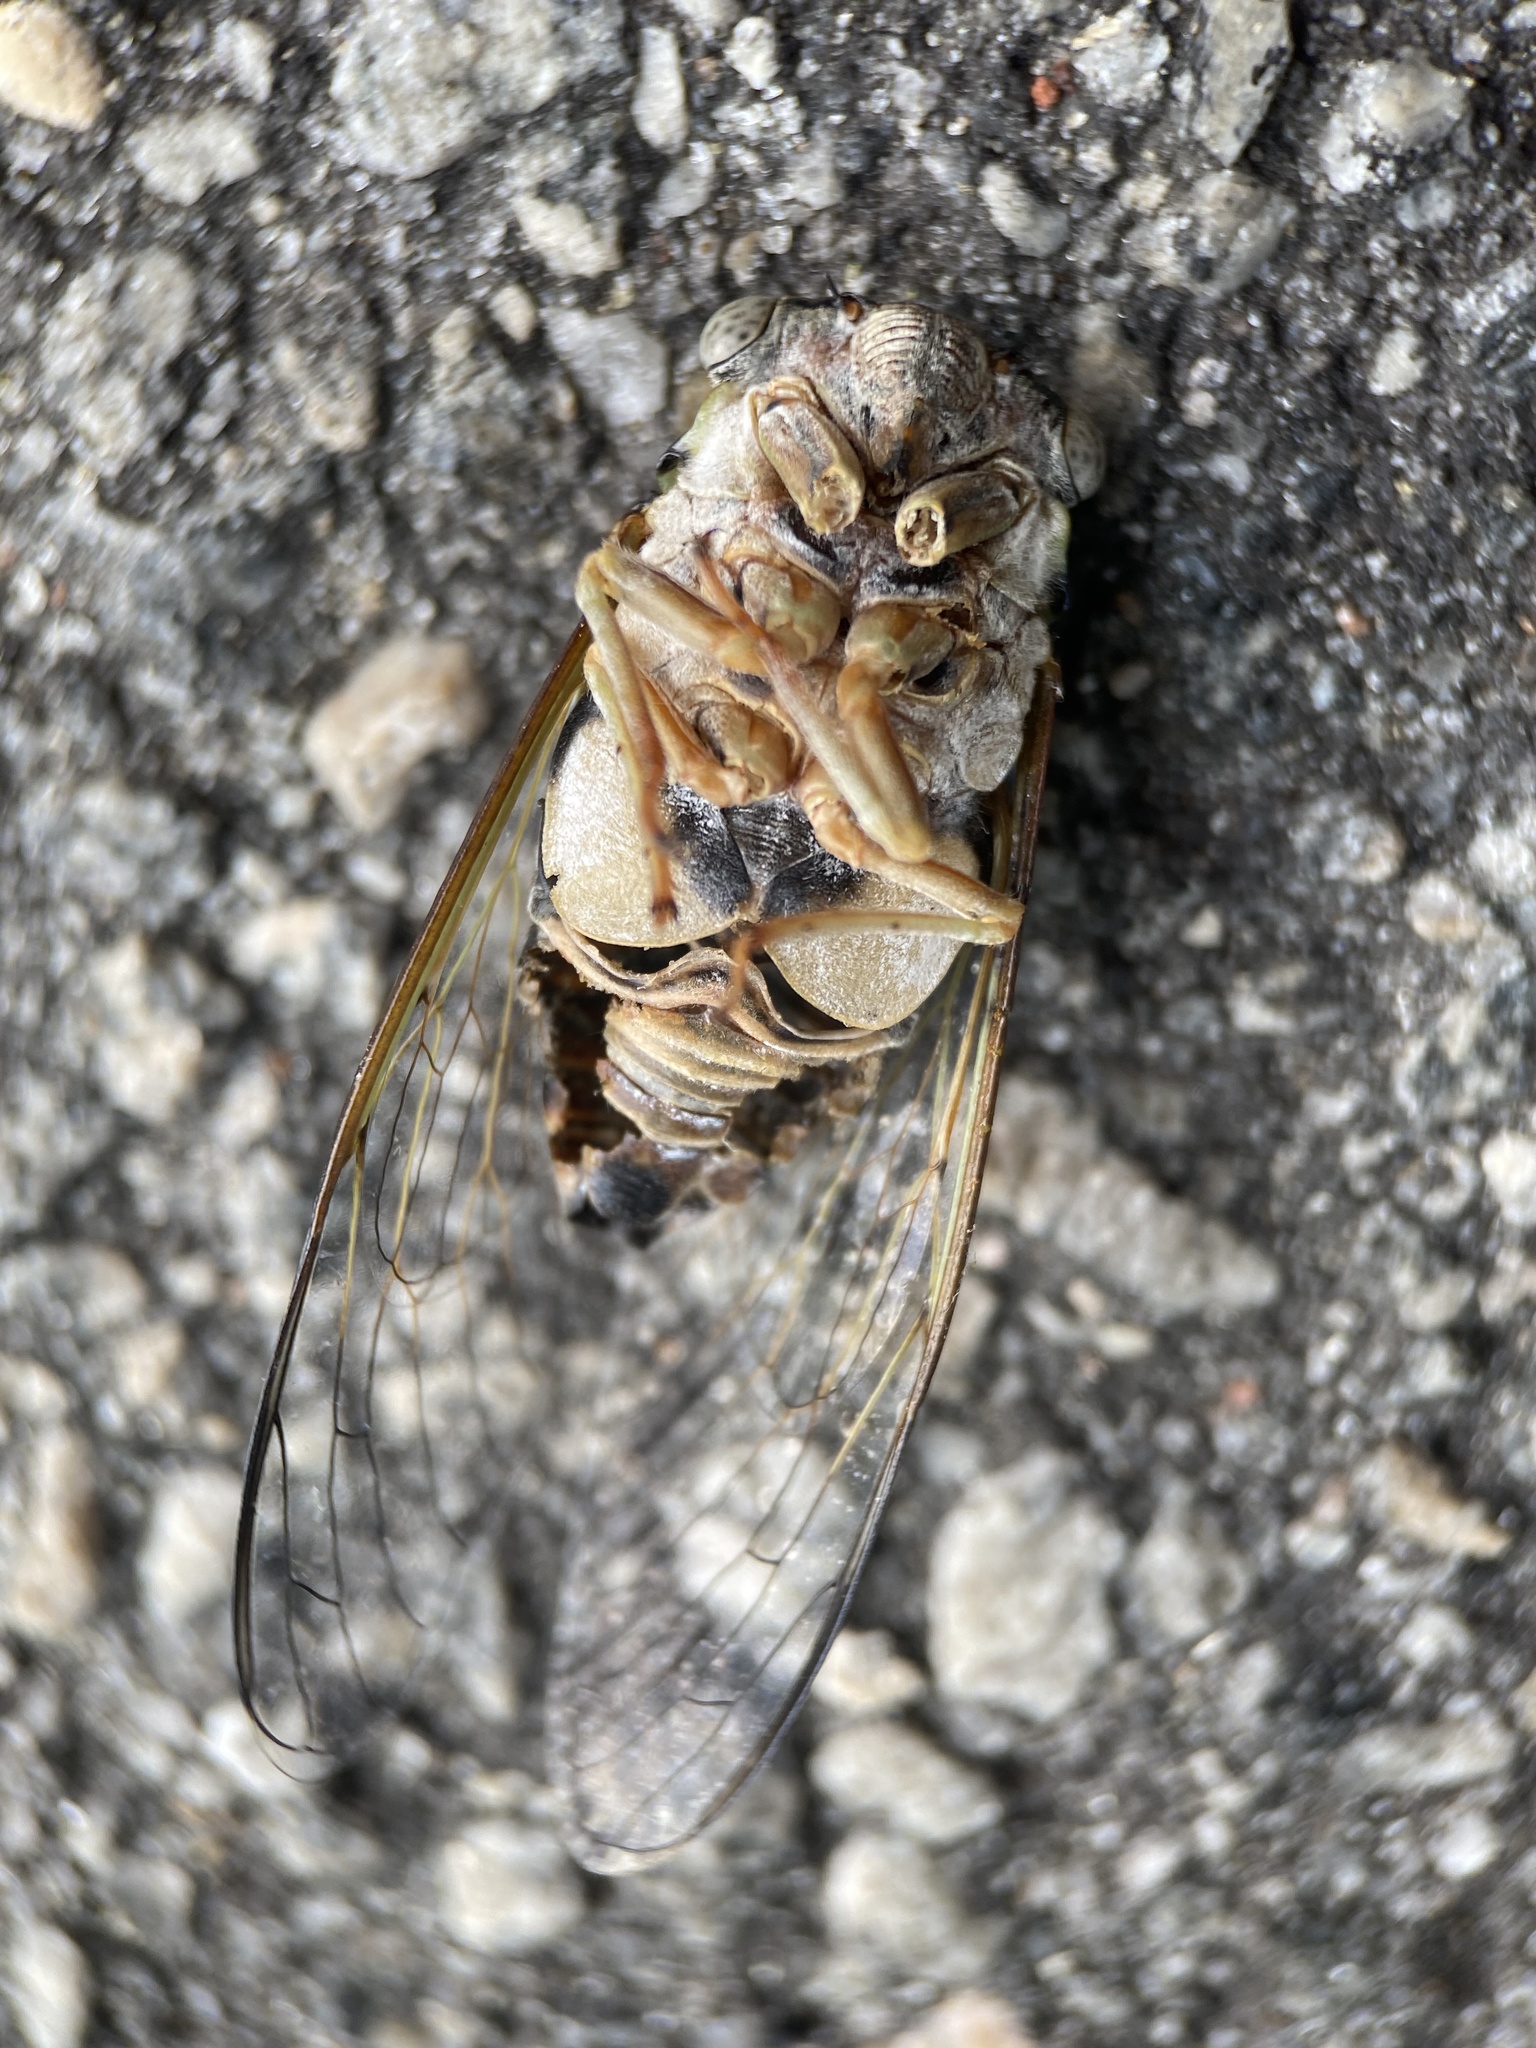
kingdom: Animalia
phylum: Arthropoda
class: Insecta
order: Hemiptera
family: Cicadidae
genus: Diceroprocta
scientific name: Diceroprocta viridifascia
